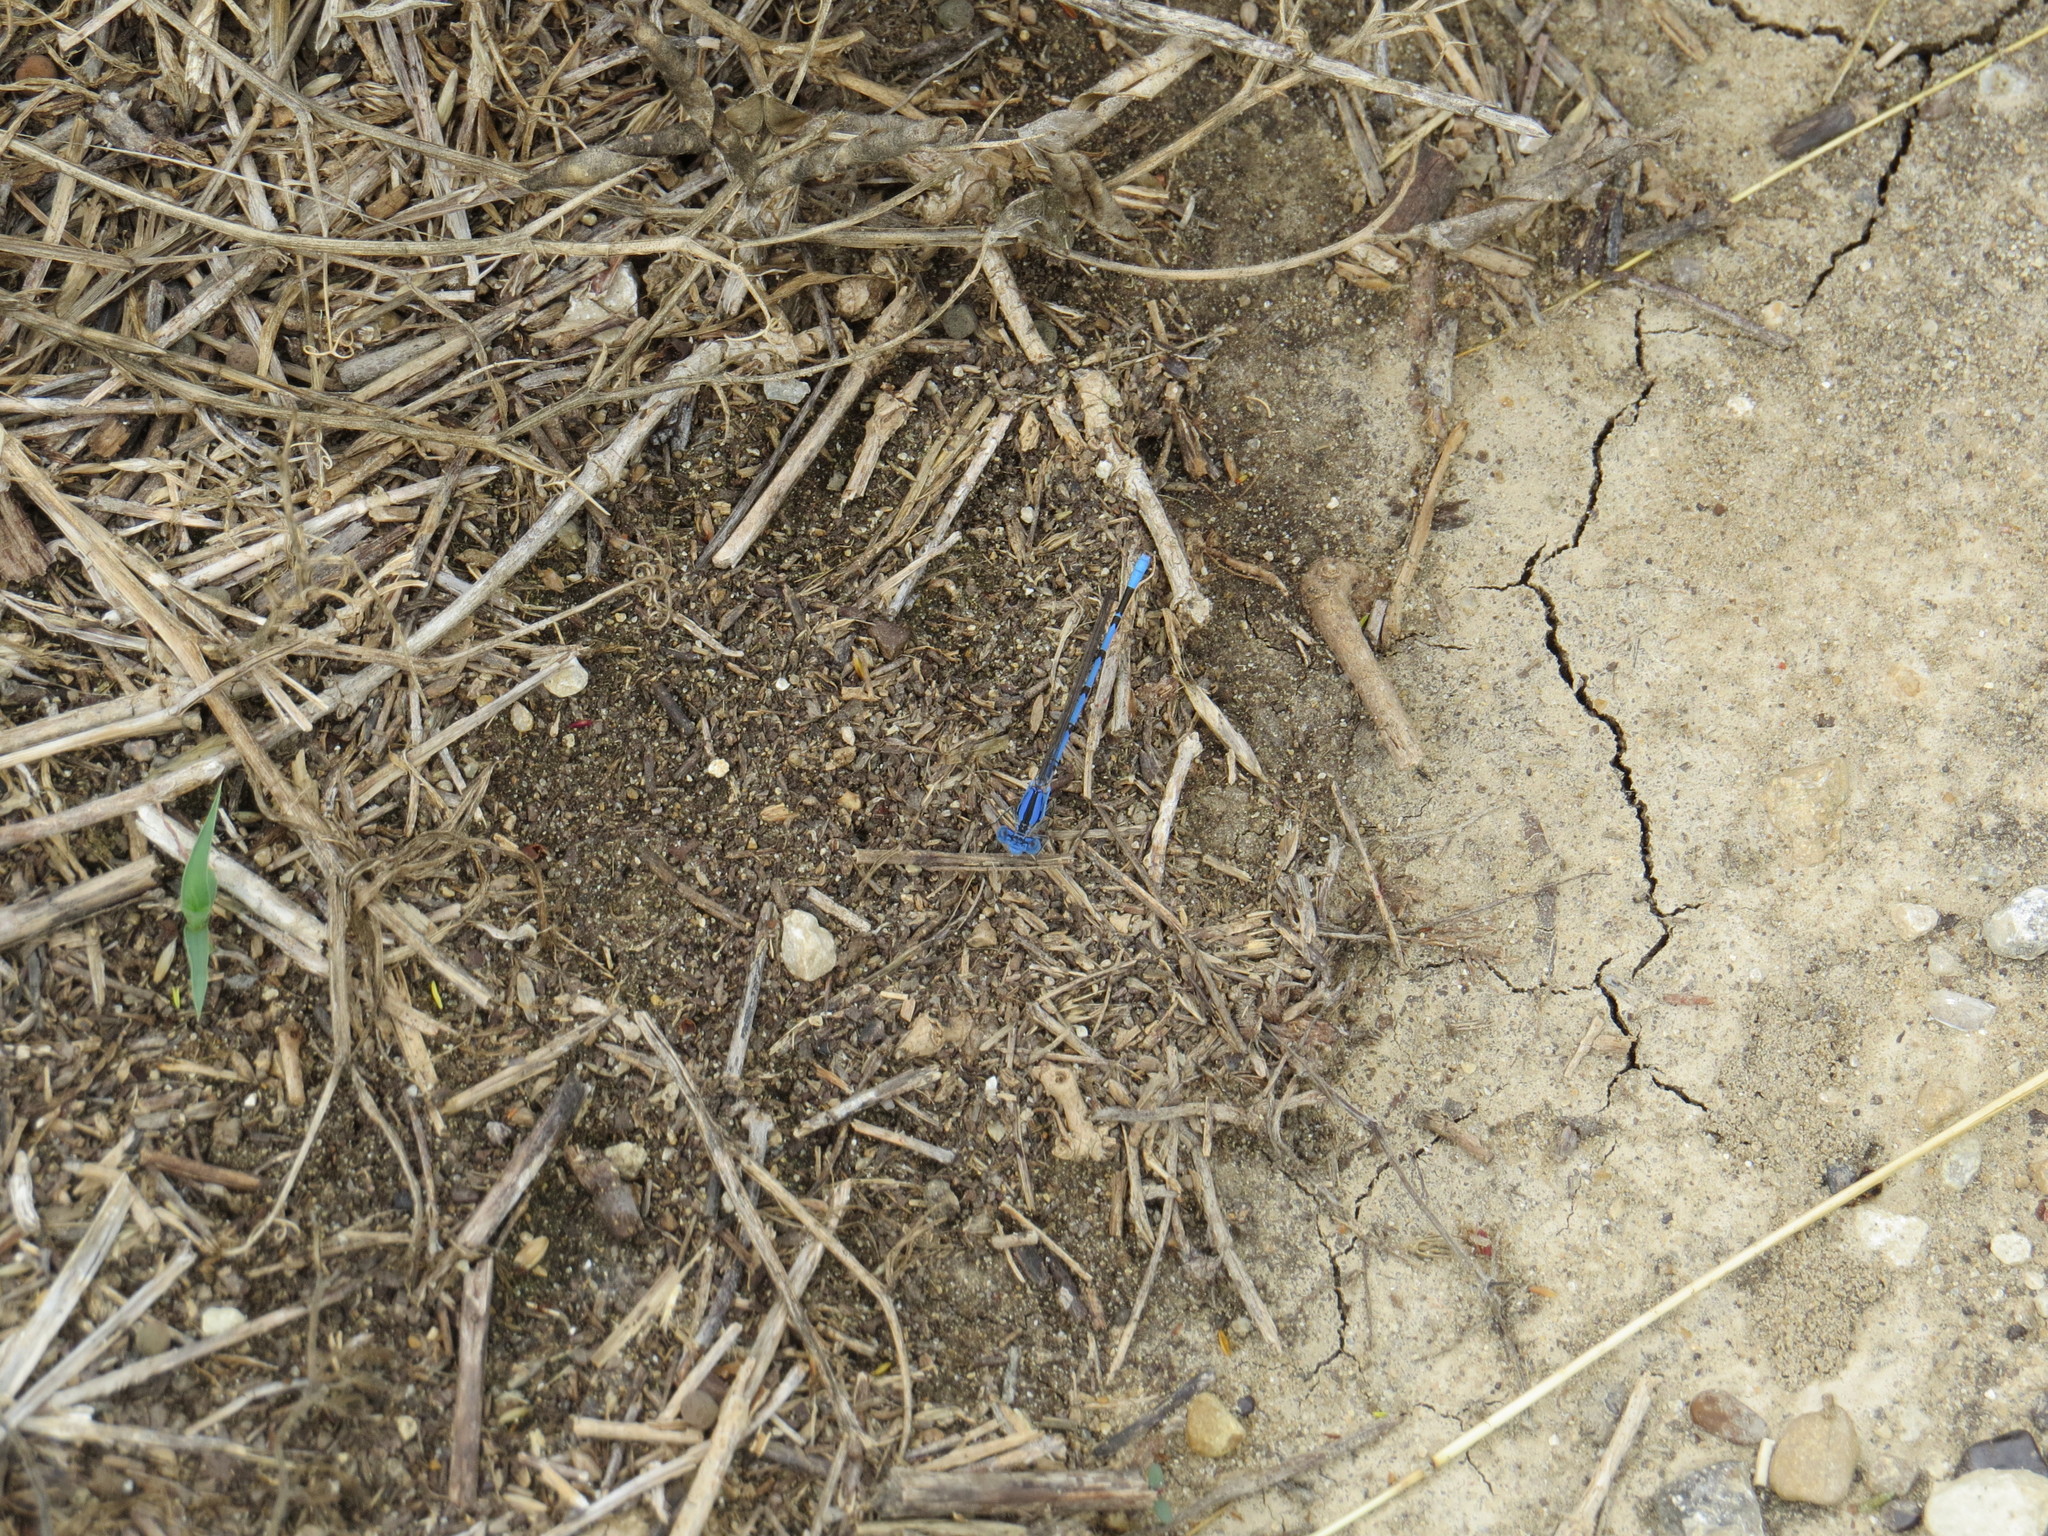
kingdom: Animalia
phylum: Arthropoda
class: Insecta
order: Odonata
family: Coenagrionidae
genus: Argia
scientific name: Argia nahuana
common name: Aztec dancer
